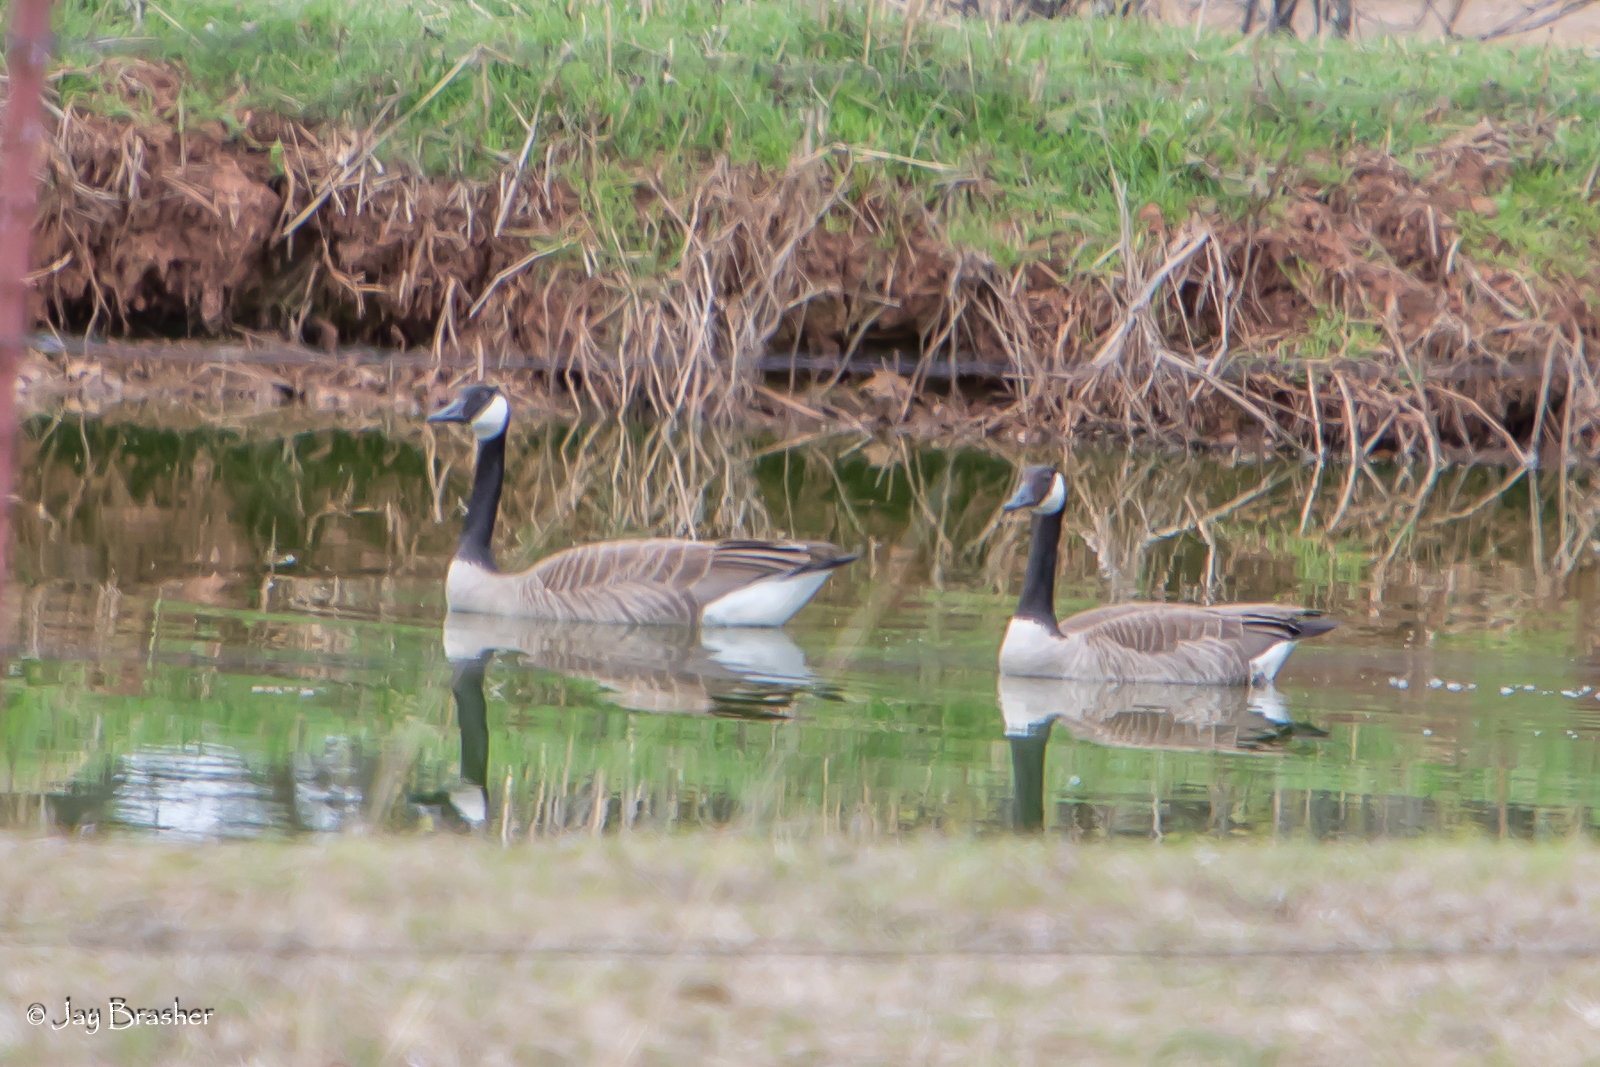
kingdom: Animalia
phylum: Chordata
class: Aves
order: Anseriformes
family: Anatidae
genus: Branta
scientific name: Branta canadensis
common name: Canada goose
